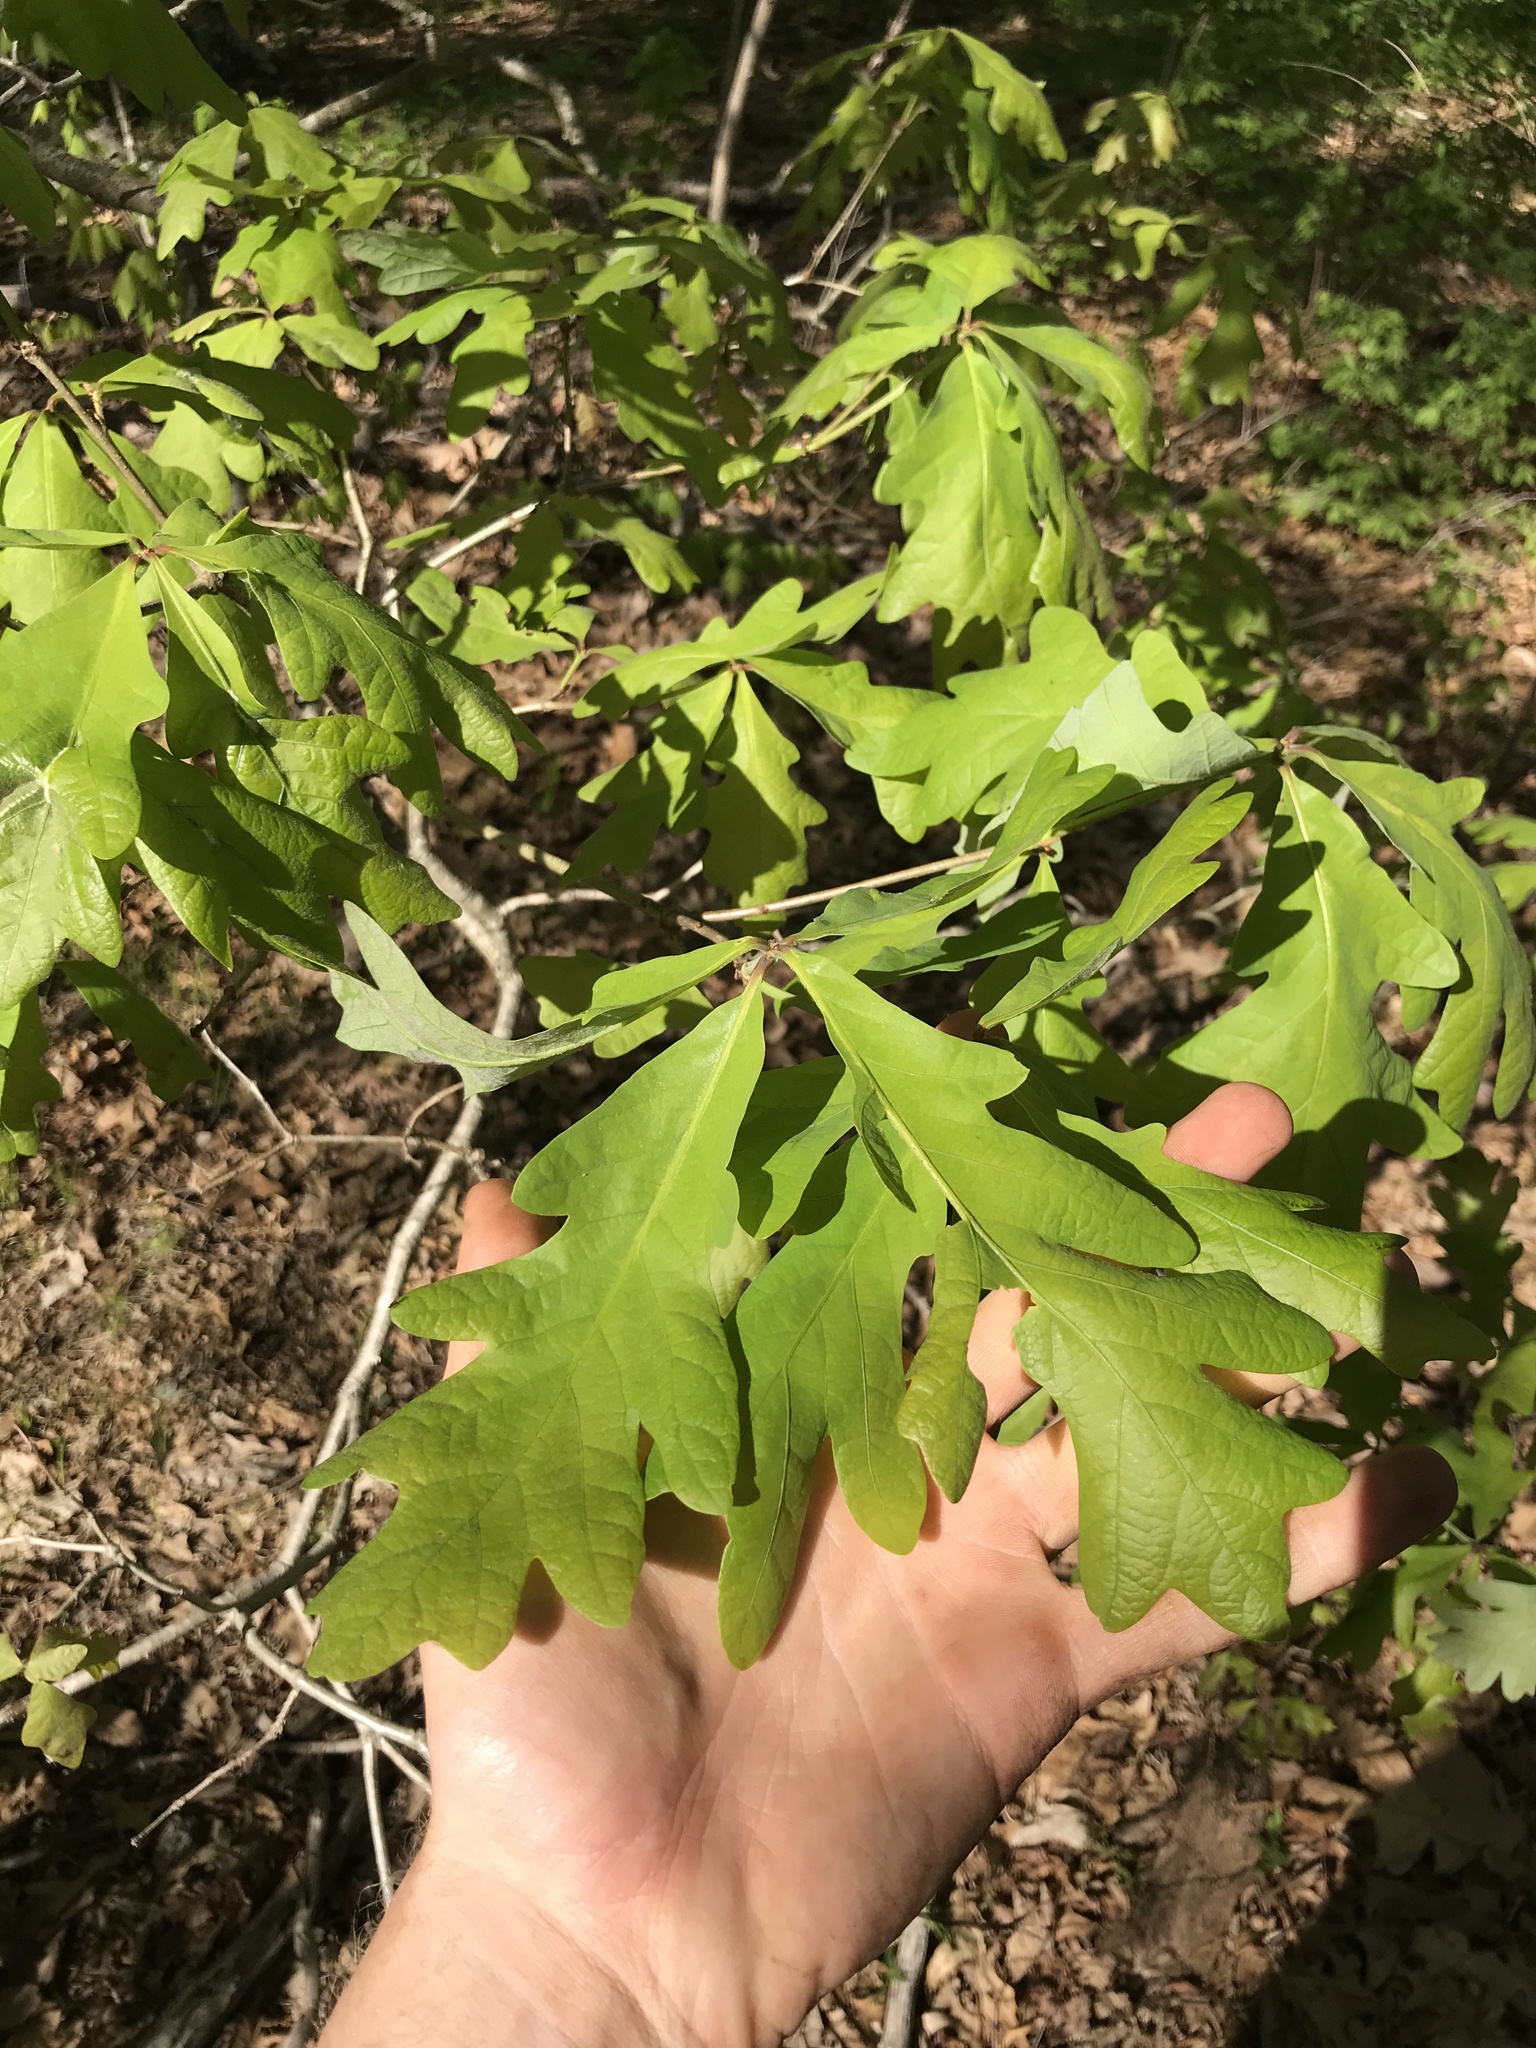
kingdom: Plantae
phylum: Tracheophyta
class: Magnoliopsida
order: Fagales
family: Fagaceae
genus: Quercus
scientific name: Quercus alba
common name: White oak
